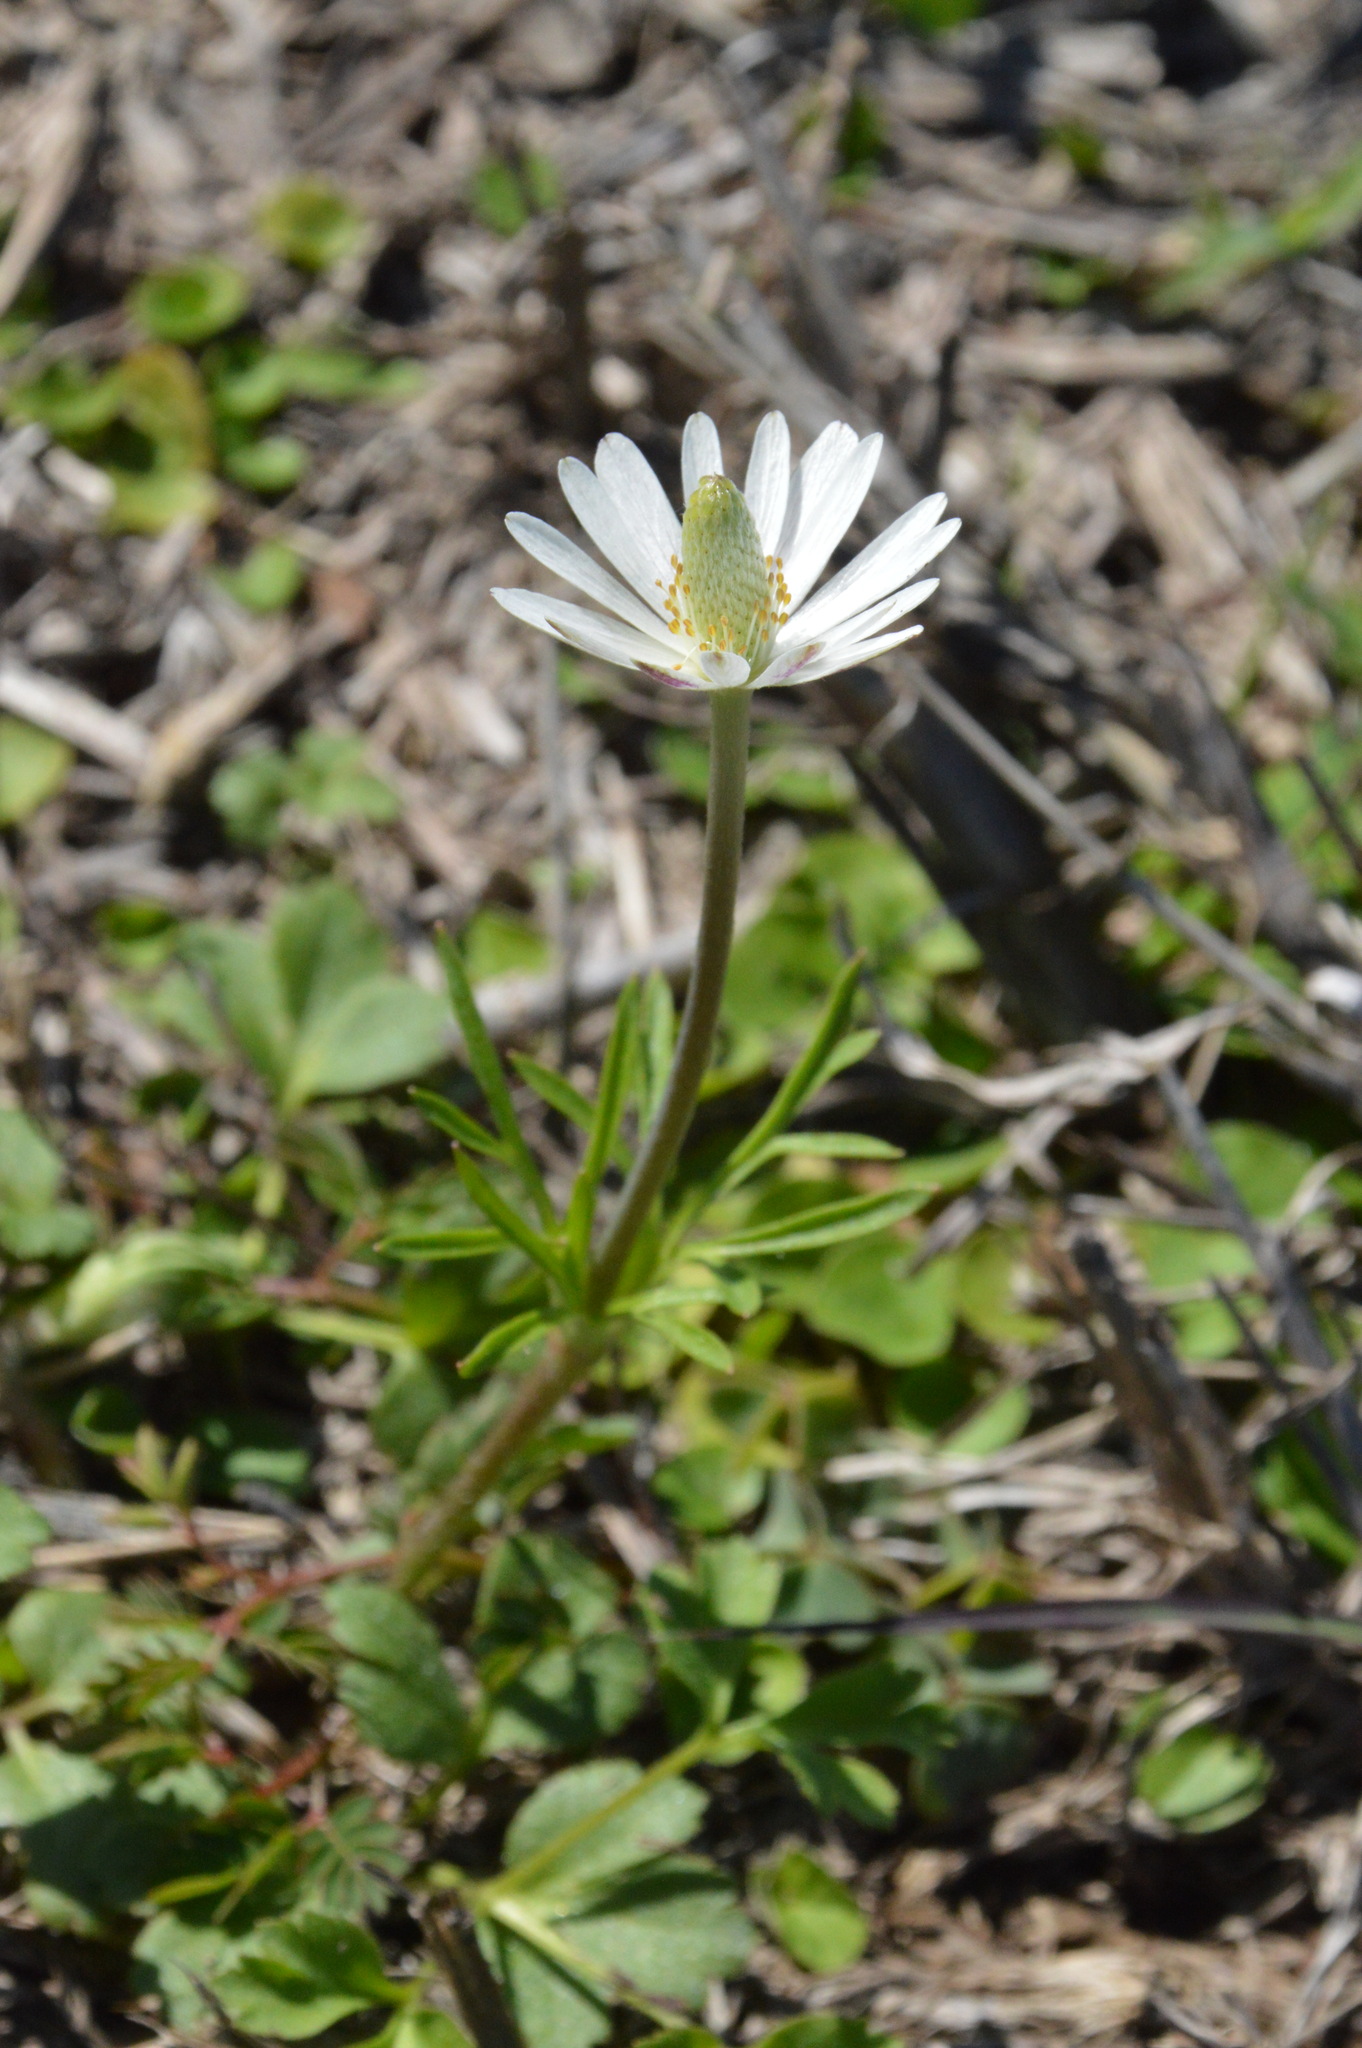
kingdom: Plantae
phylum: Tracheophyta
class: Magnoliopsida
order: Ranunculales
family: Ranunculaceae
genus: Anemone
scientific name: Anemone berlandieri
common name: Ten-petal anemone
